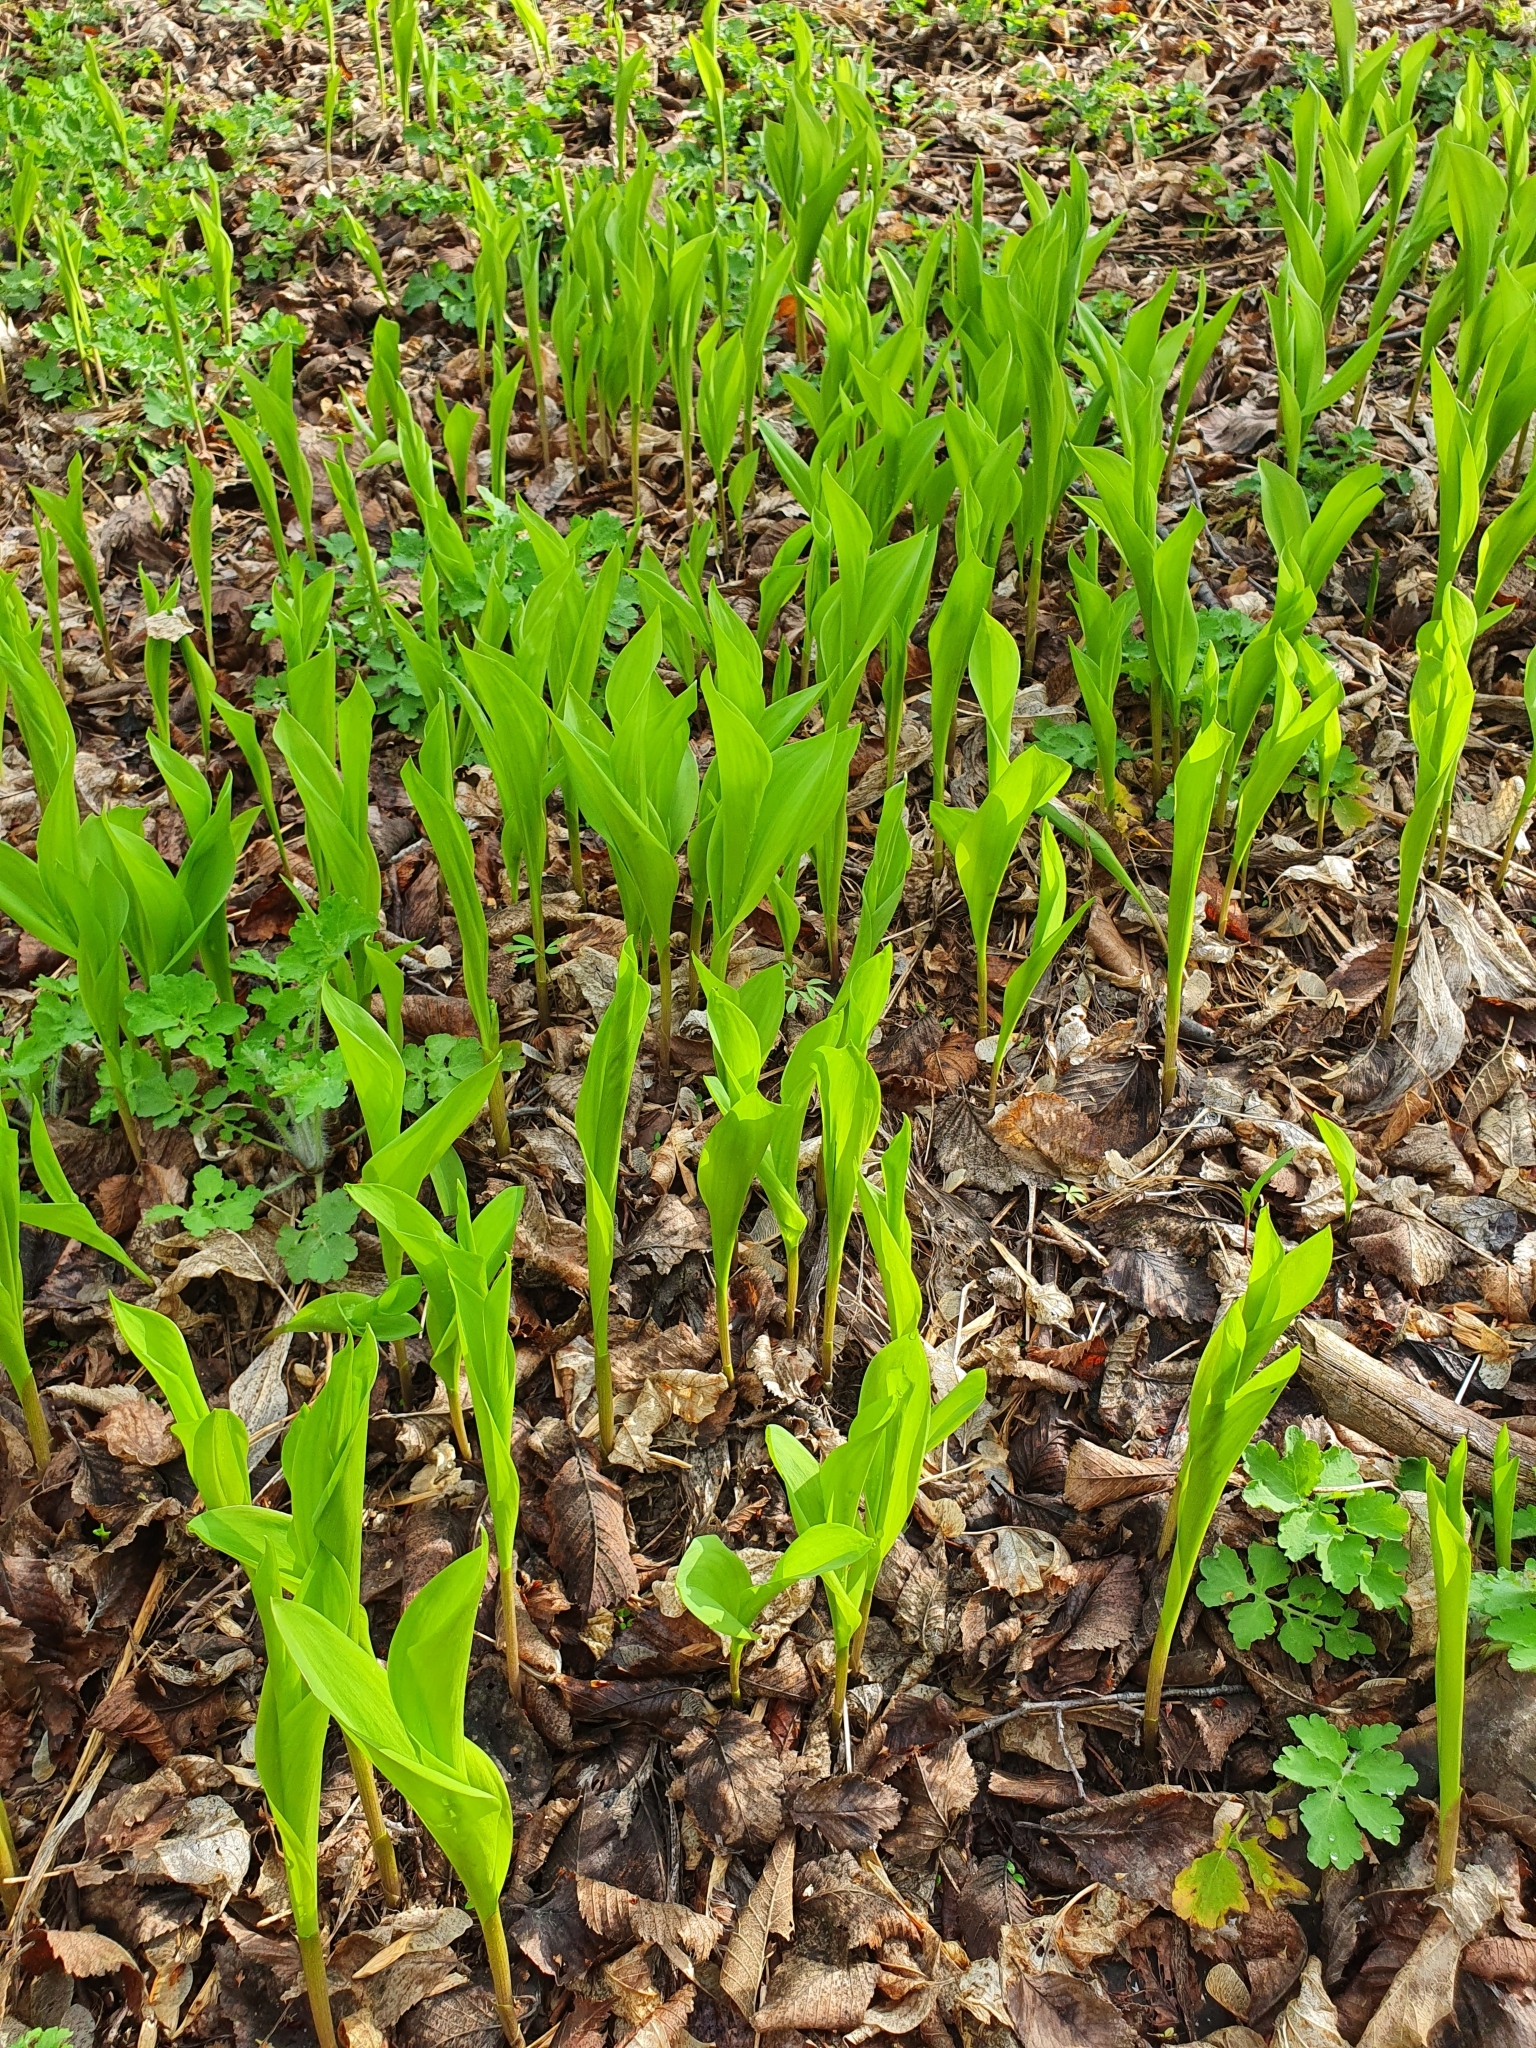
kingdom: Plantae
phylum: Tracheophyta
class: Liliopsida
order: Asparagales
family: Asparagaceae
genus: Convallaria
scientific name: Convallaria majalis
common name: Lily-of-the-valley
